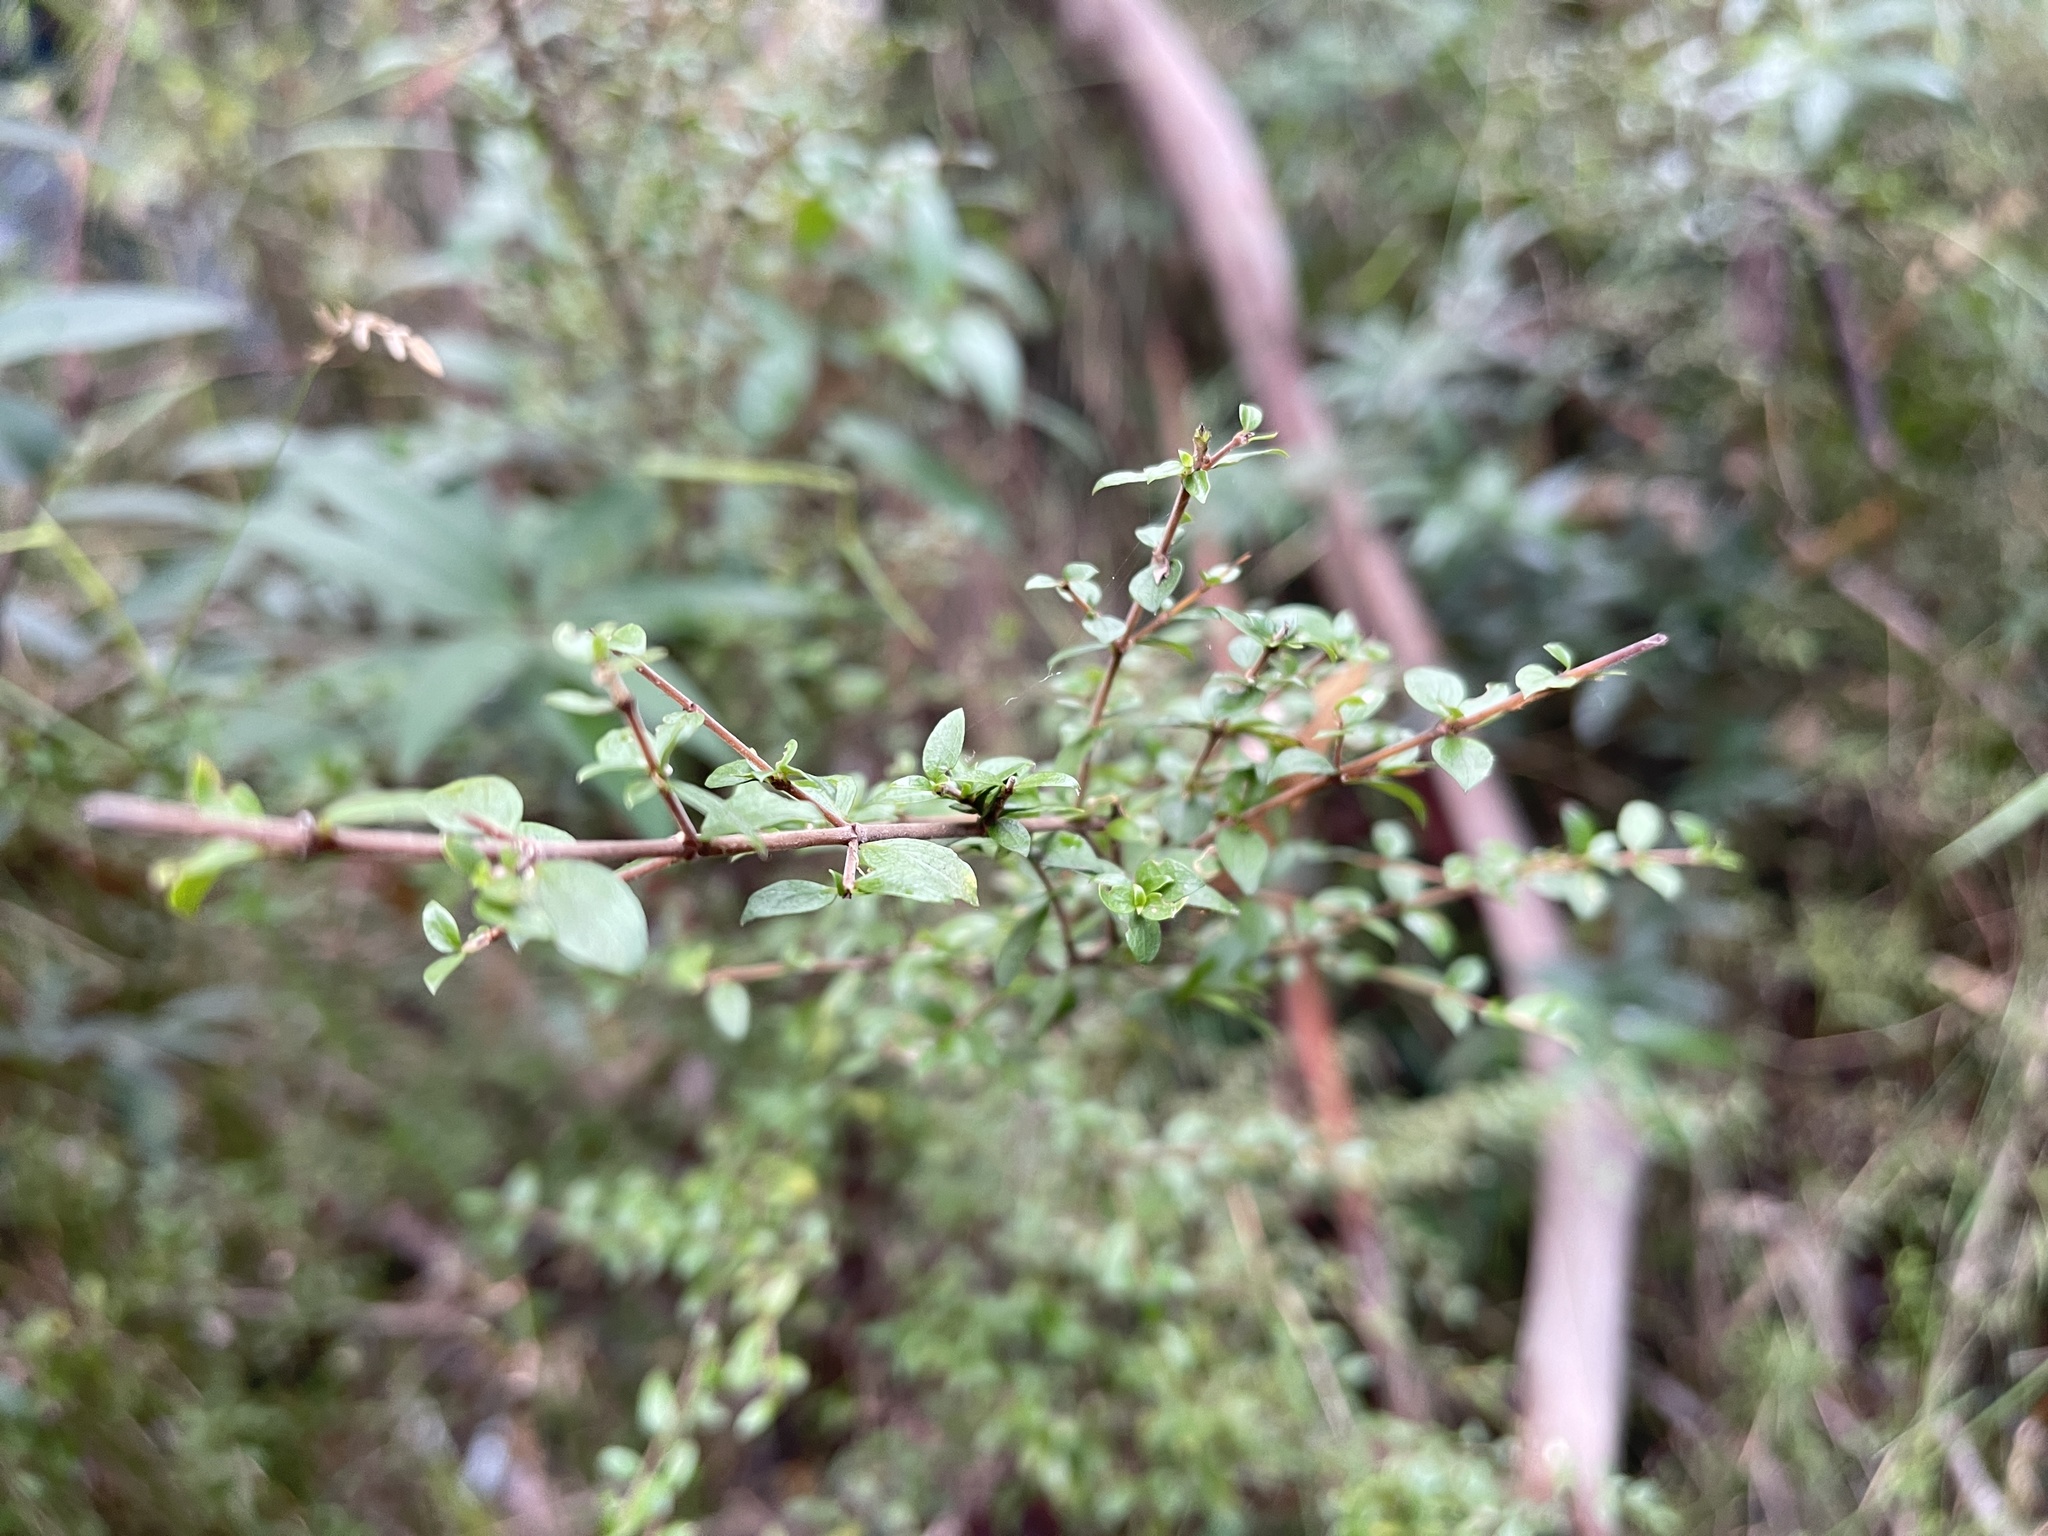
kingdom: Plantae
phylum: Tracheophyta
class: Magnoliopsida
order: Gentianales
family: Rubiaceae
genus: Coprosma
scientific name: Coprosma quadrifida
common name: Prickly currantbush
